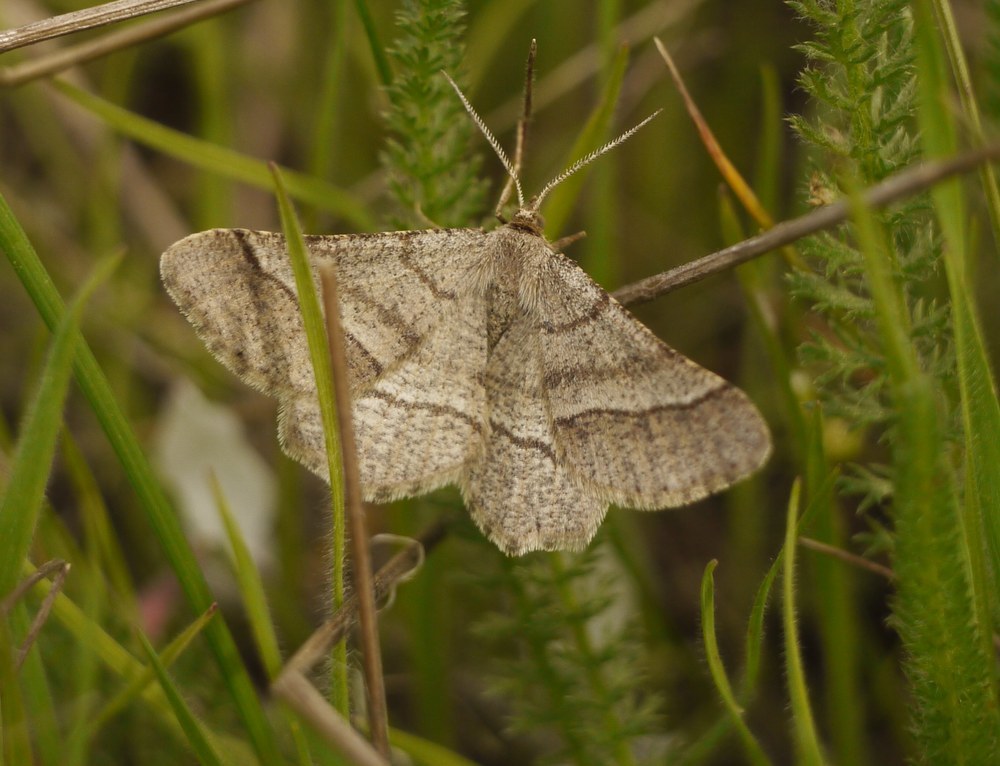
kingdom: Animalia
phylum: Arthropoda
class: Insecta
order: Lepidoptera
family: Geometridae
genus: Tephrina
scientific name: Tephrina murinaria
